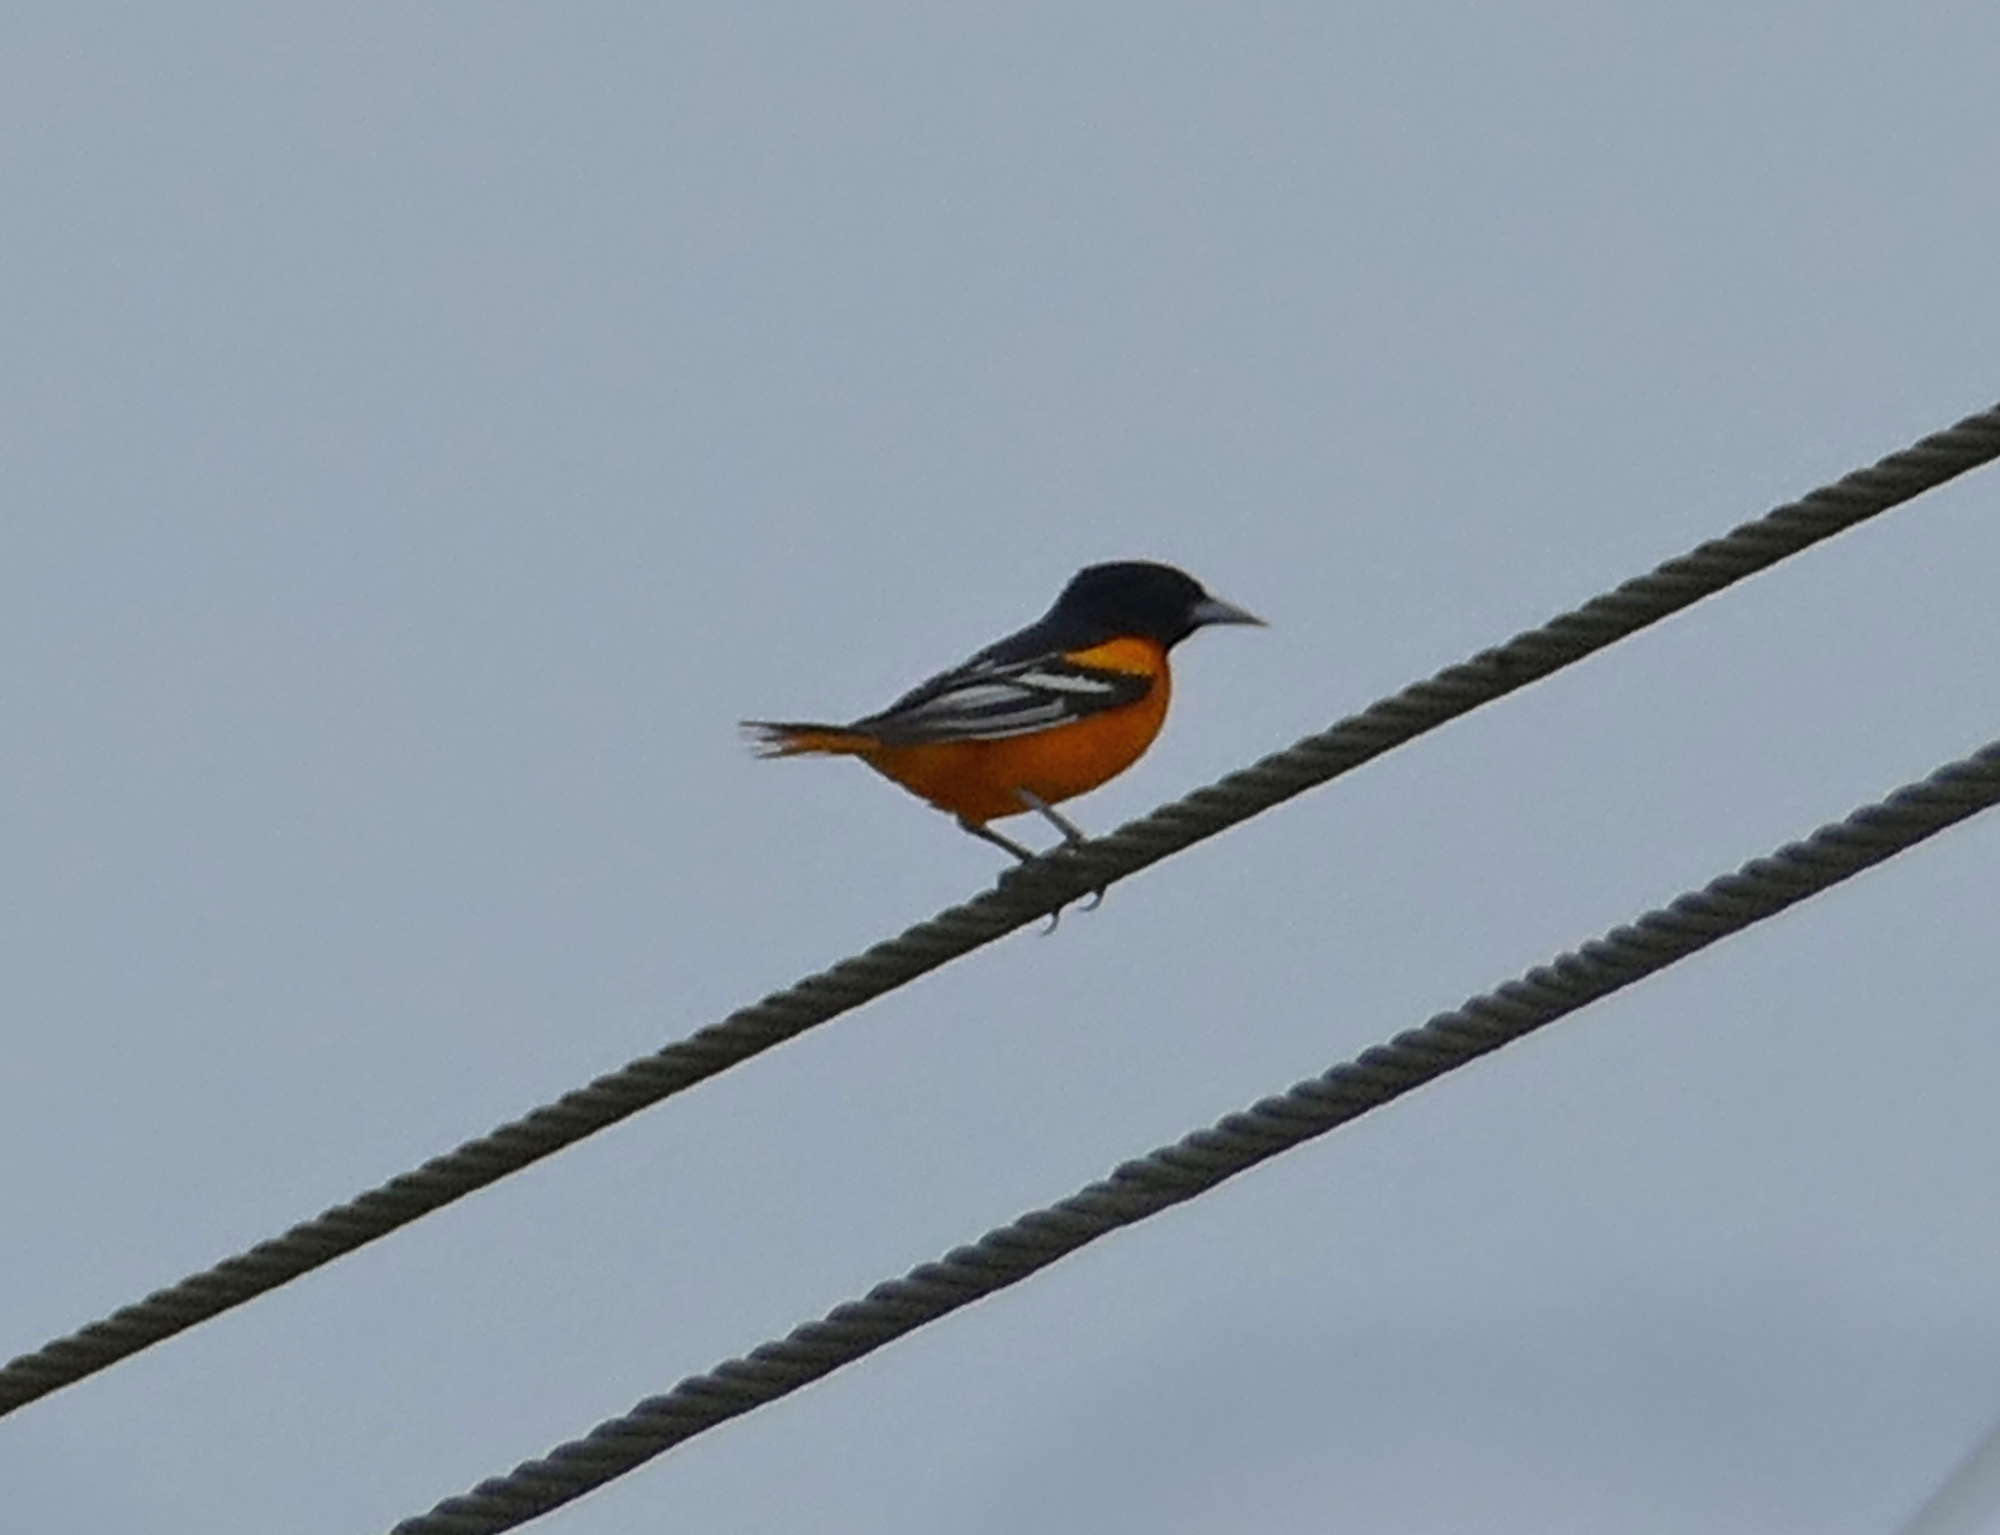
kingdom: Animalia
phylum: Chordata
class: Aves
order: Passeriformes
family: Icteridae
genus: Icterus
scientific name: Icterus galbula
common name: Baltimore oriole
